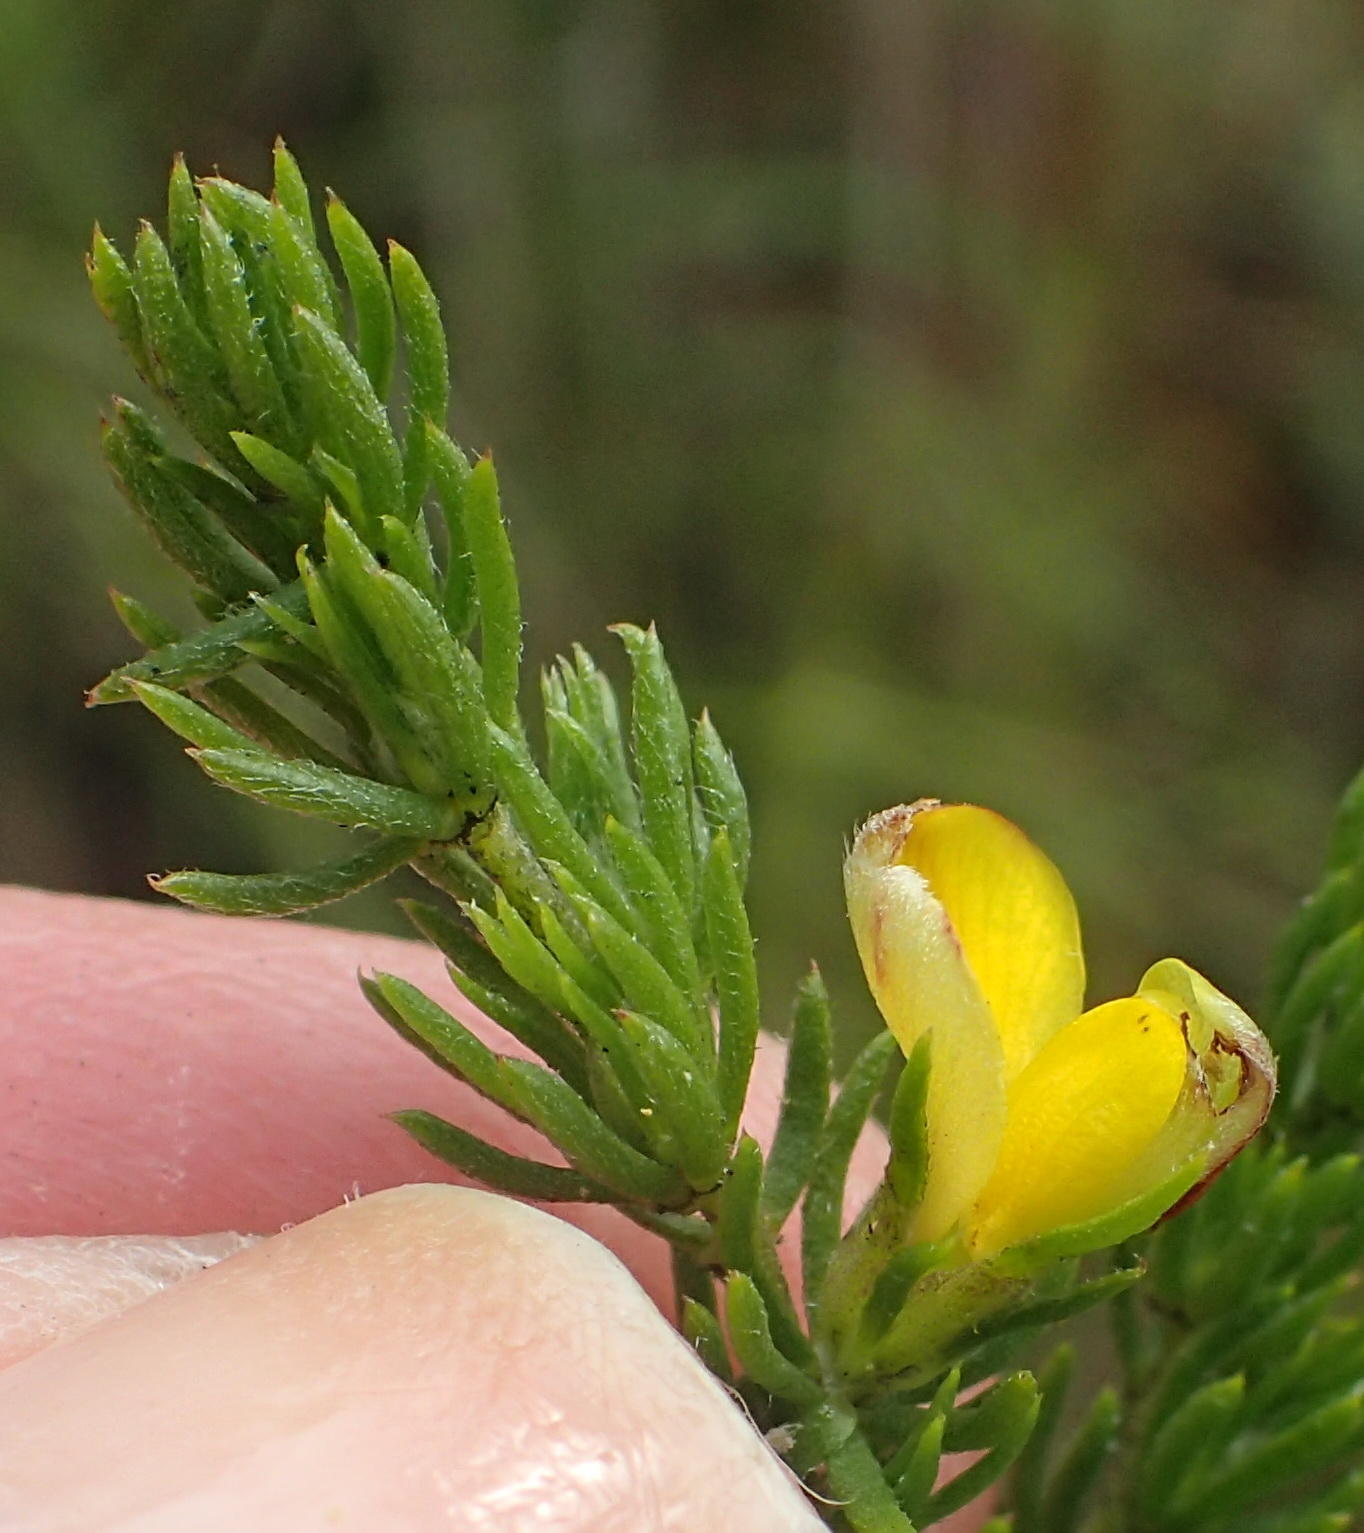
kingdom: Plantae
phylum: Tracheophyta
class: Magnoliopsida
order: Fabales
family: Fabaceae
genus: Aspalathus
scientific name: Aspalathus asparagoides
